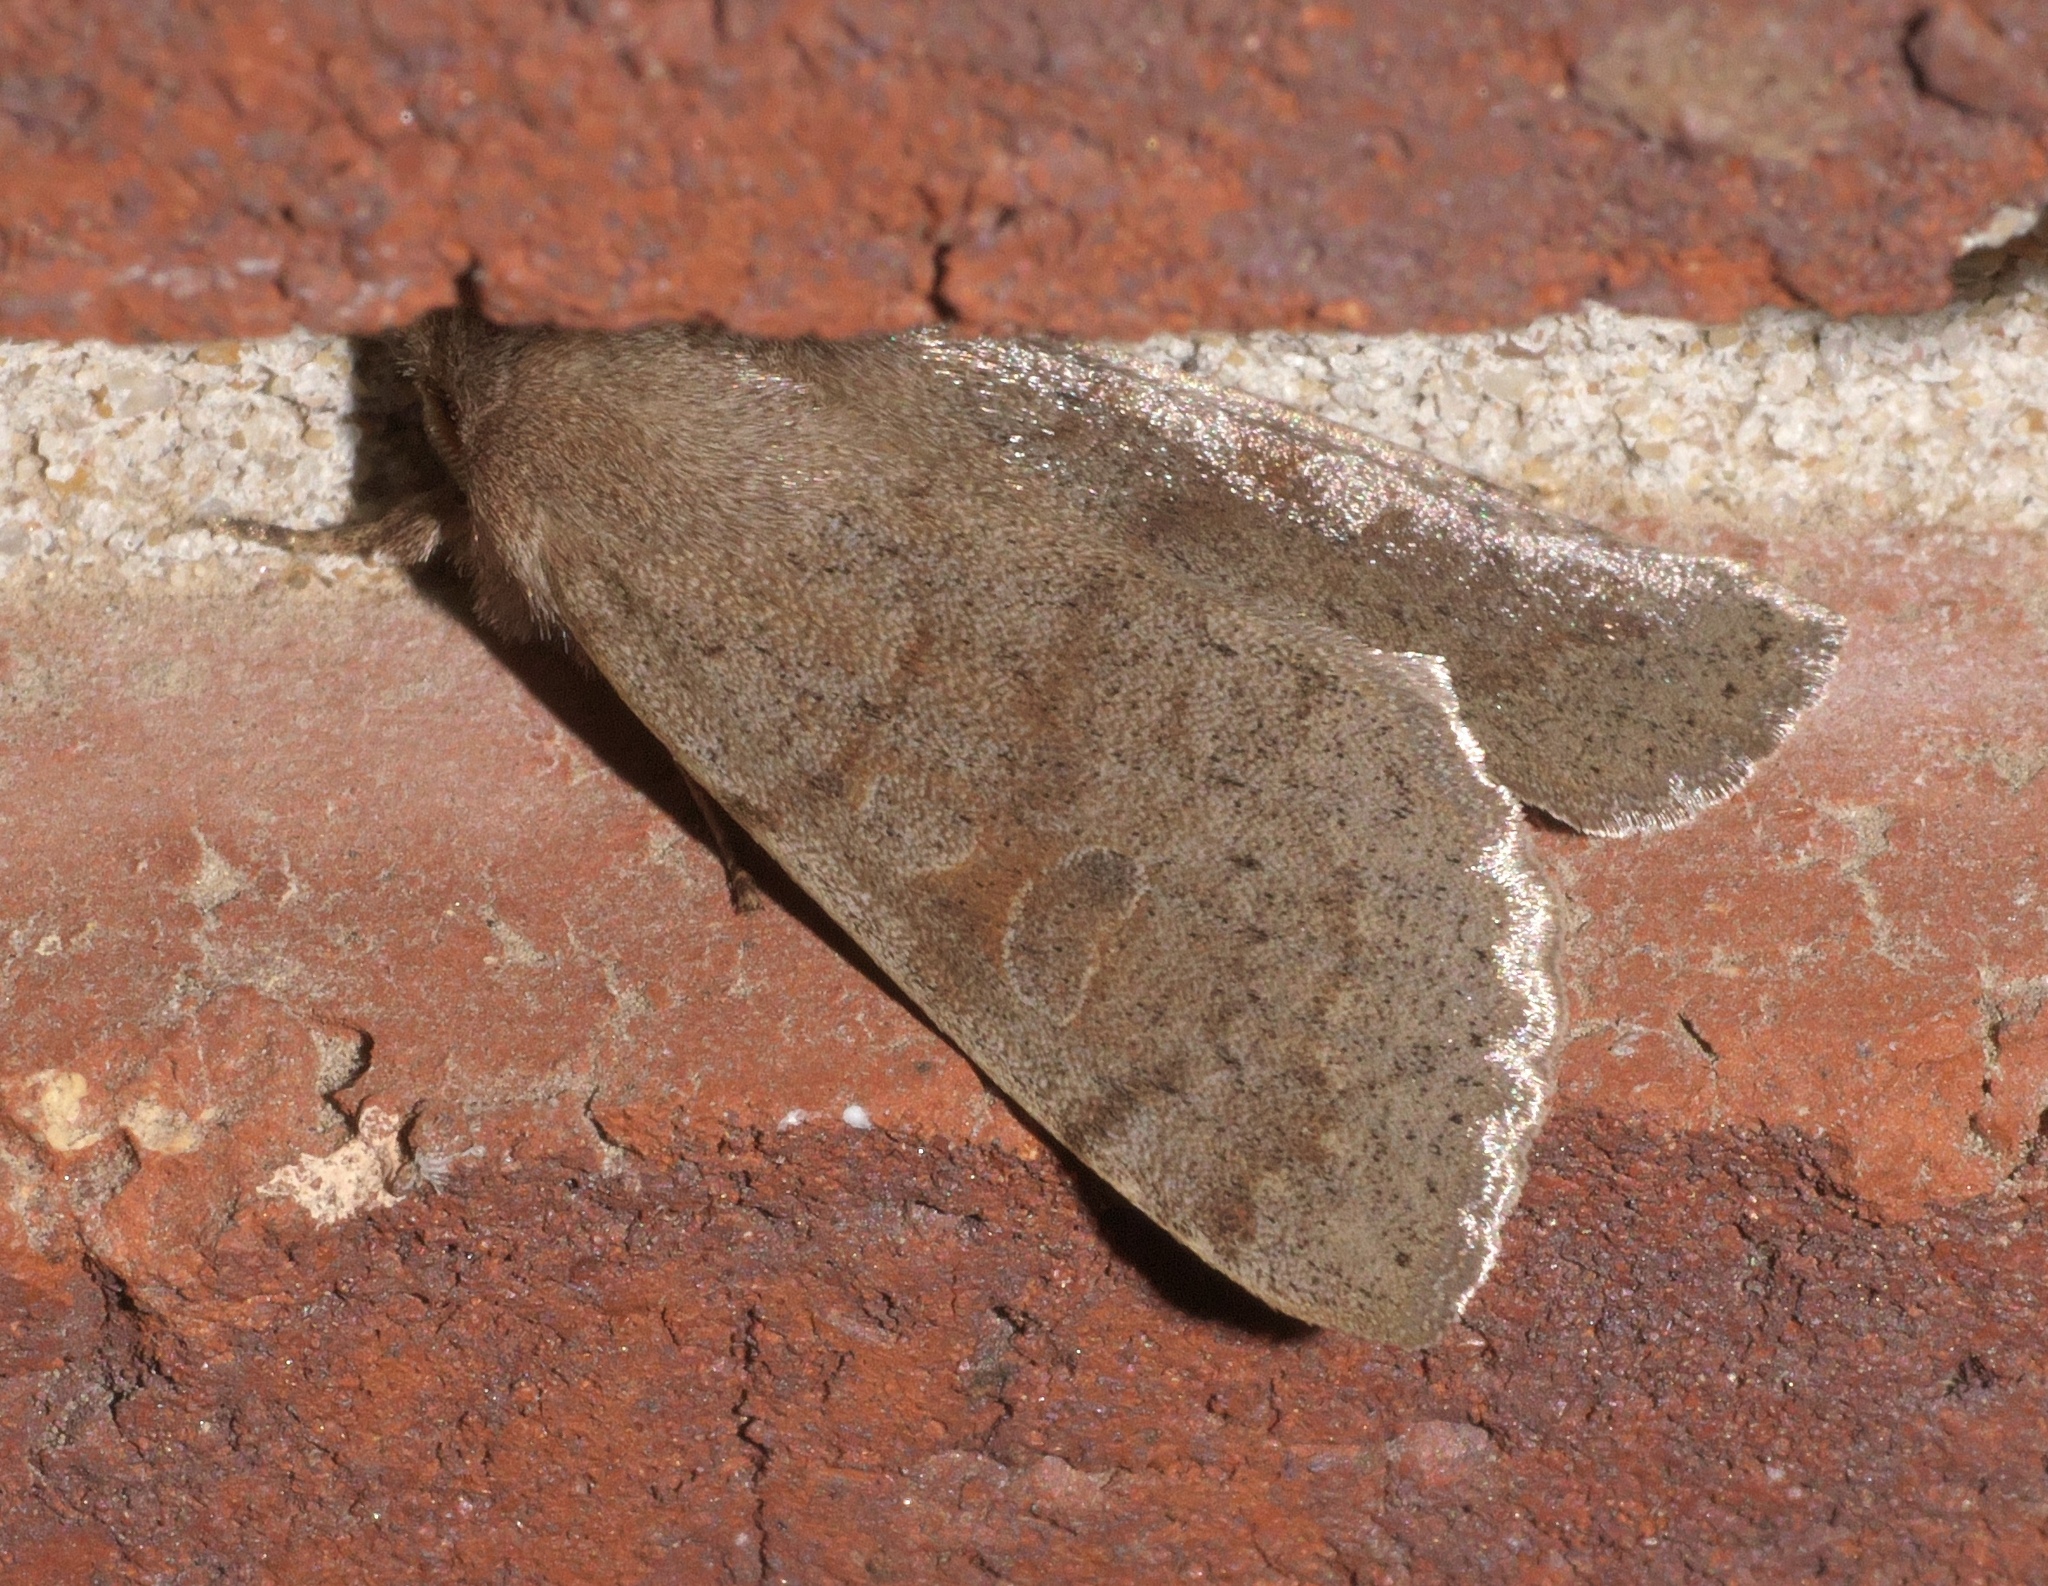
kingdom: Animalia
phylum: Arthropoda
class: Insecta
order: Lepidoptera
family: Noctuidae
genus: Orthosia
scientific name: Orthosia alurina
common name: Gray quaker
